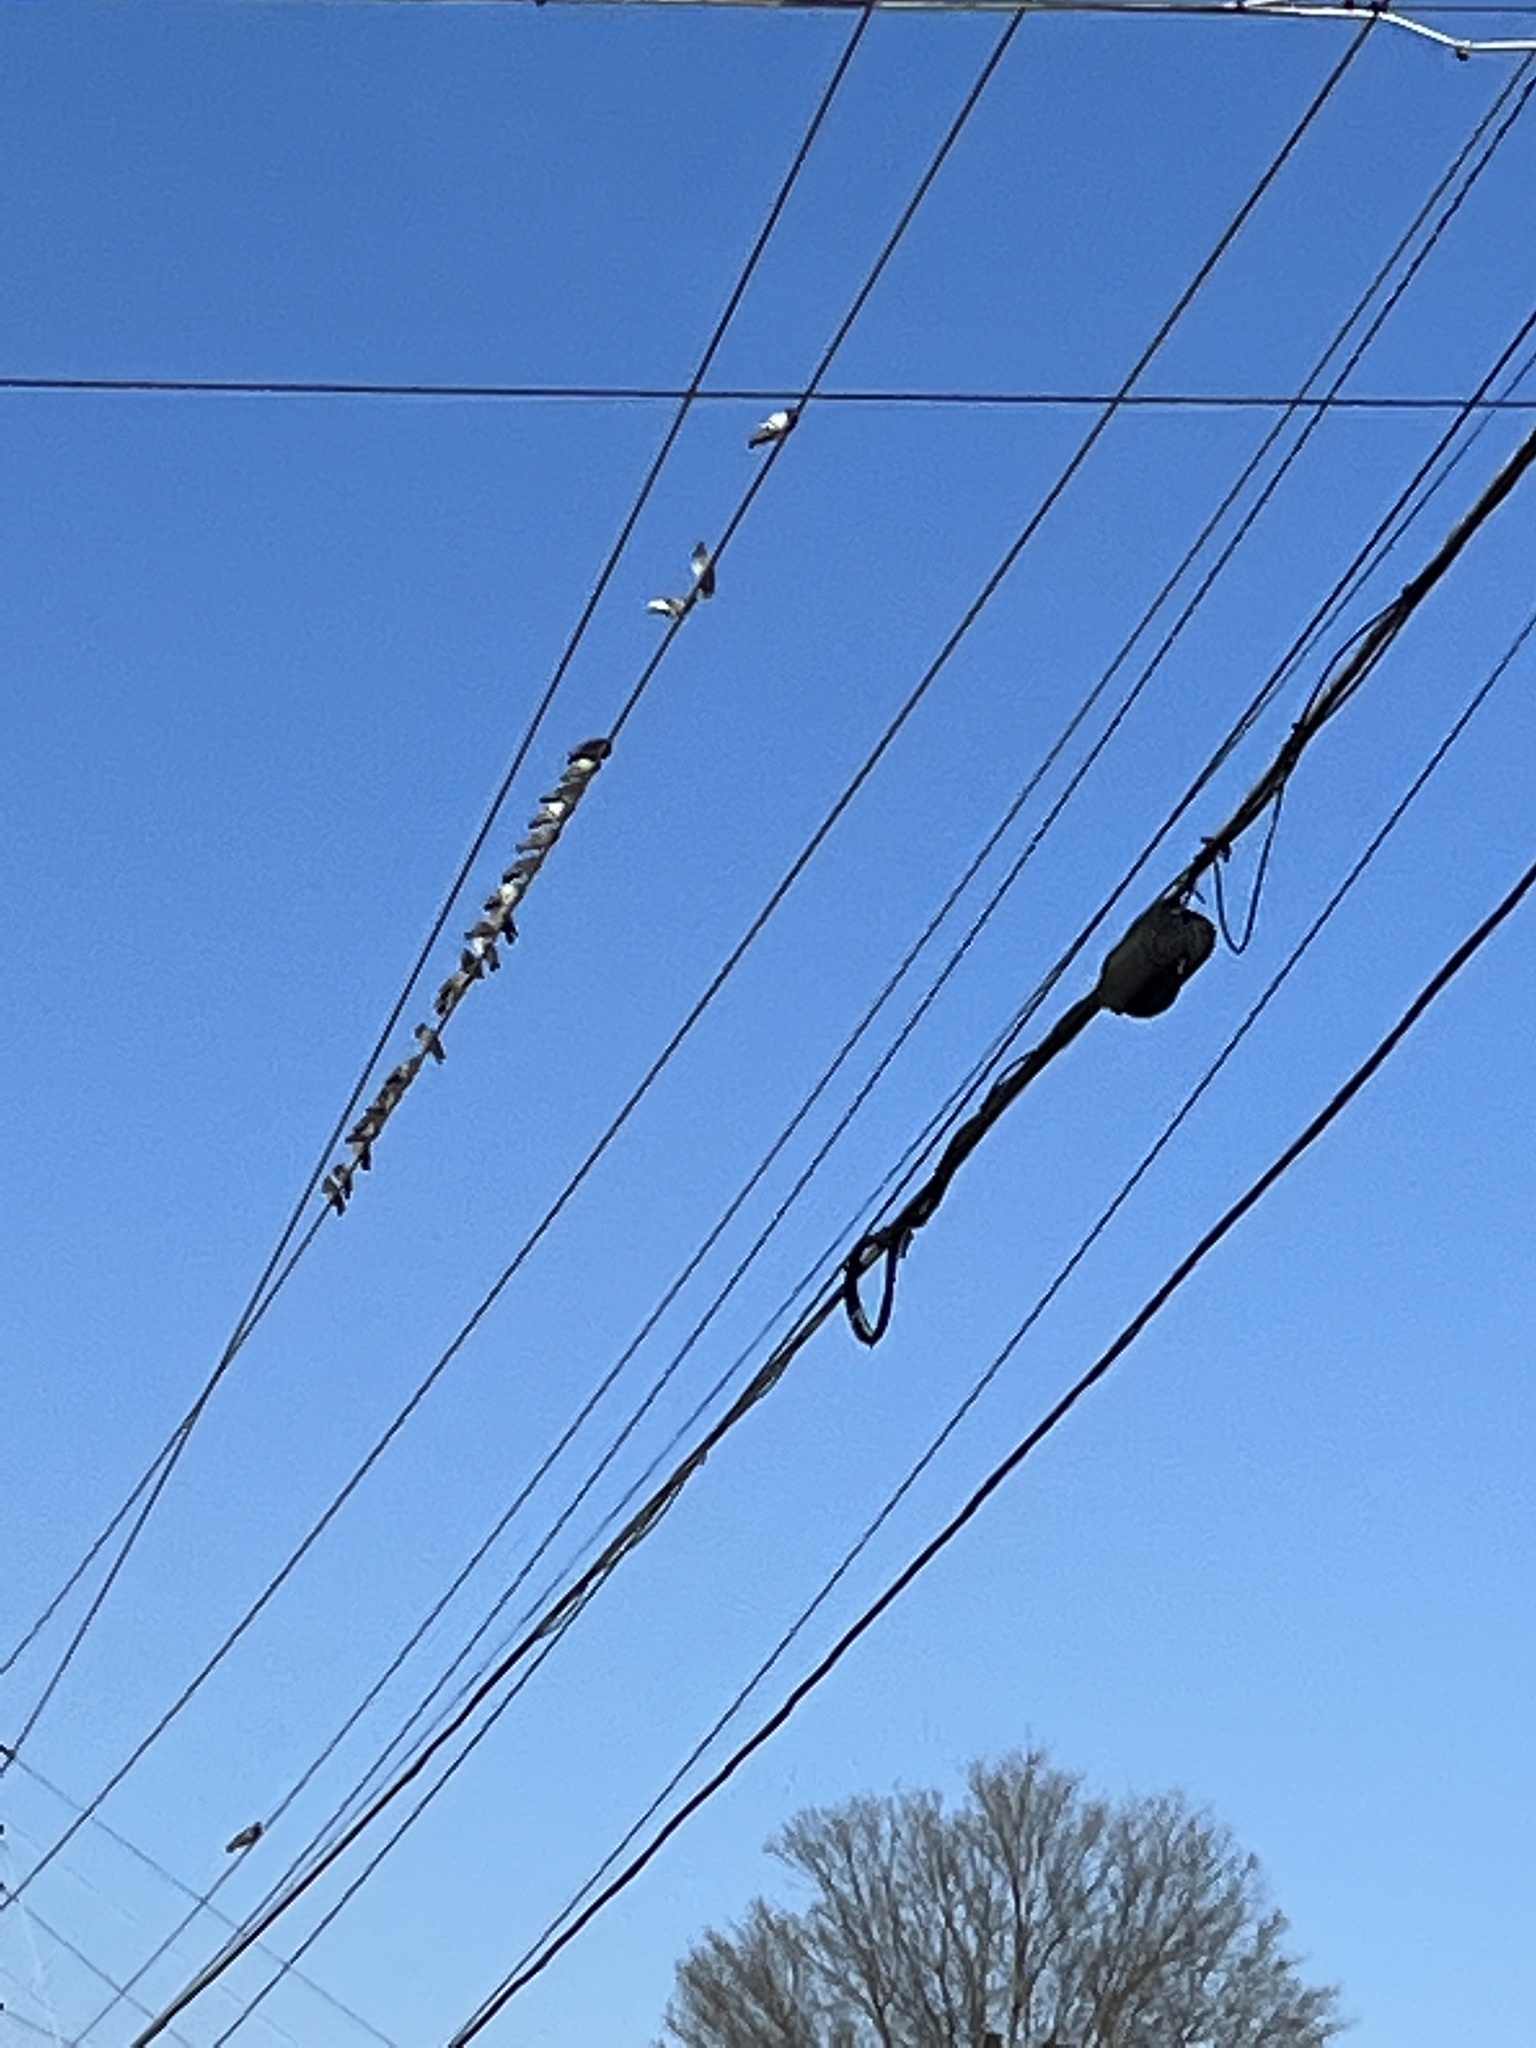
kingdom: Animalia
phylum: Chordata
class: Aves
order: Columbiformes
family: Columbidae
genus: Columba
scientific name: Columba livia
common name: Rock pigeon
